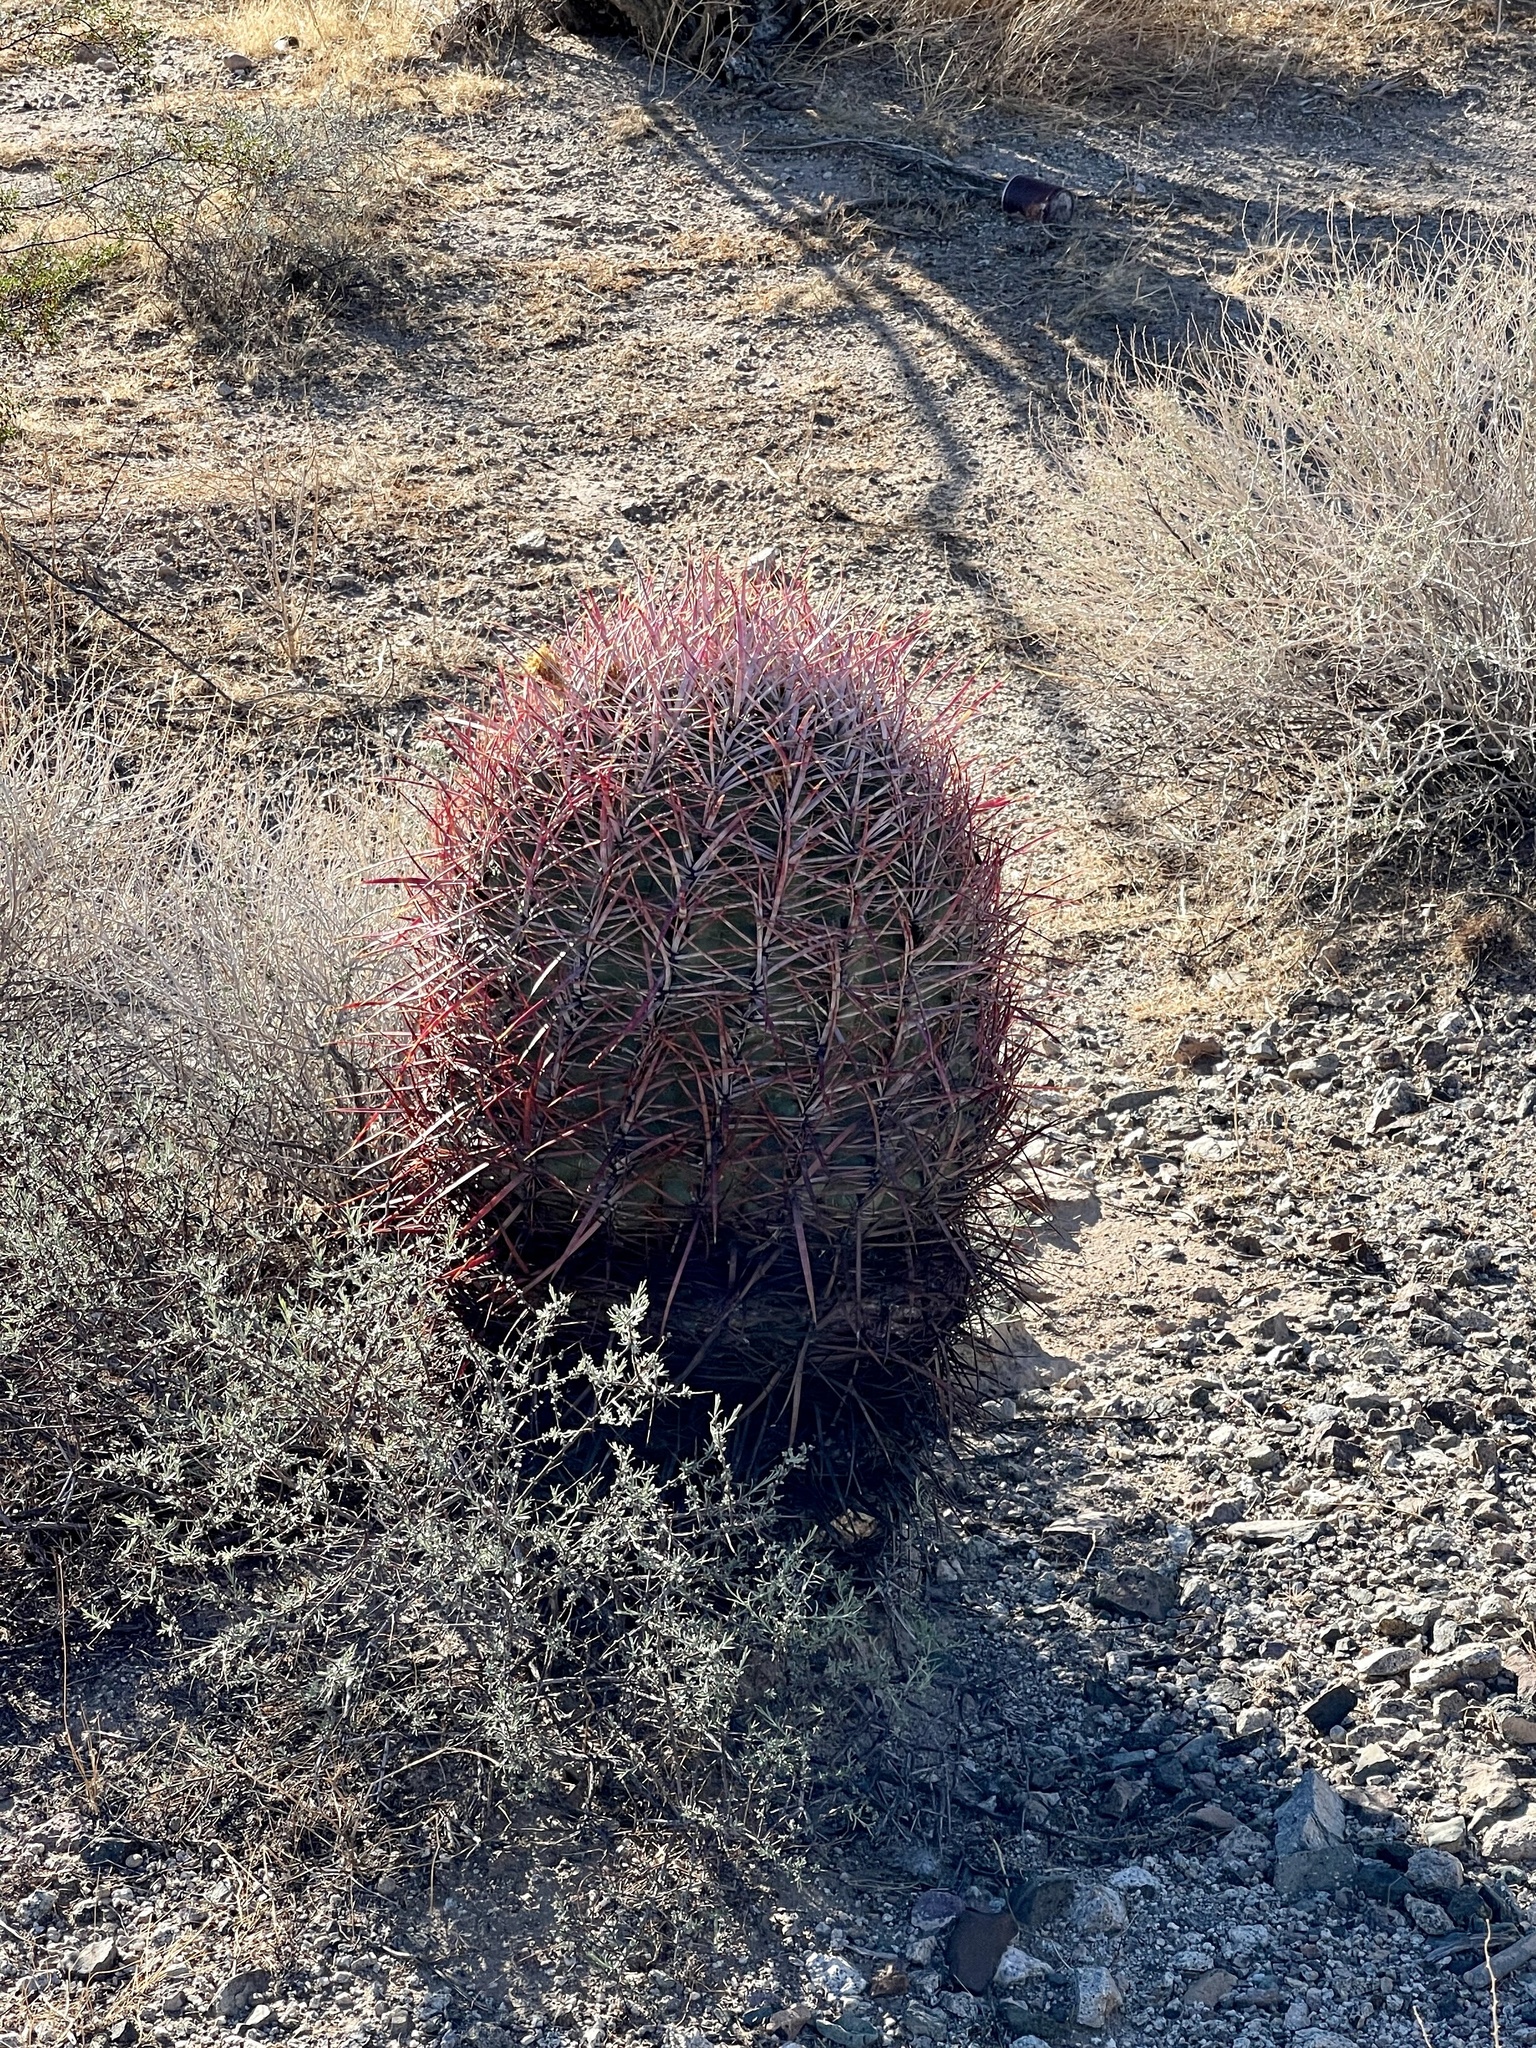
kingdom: Plantae
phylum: Tracheophyta
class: Magnoliopsida
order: Caryophyllales
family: Cactaceae
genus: Ferocactus
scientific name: Ferocactus cylindraceus
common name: California barrel cactus
